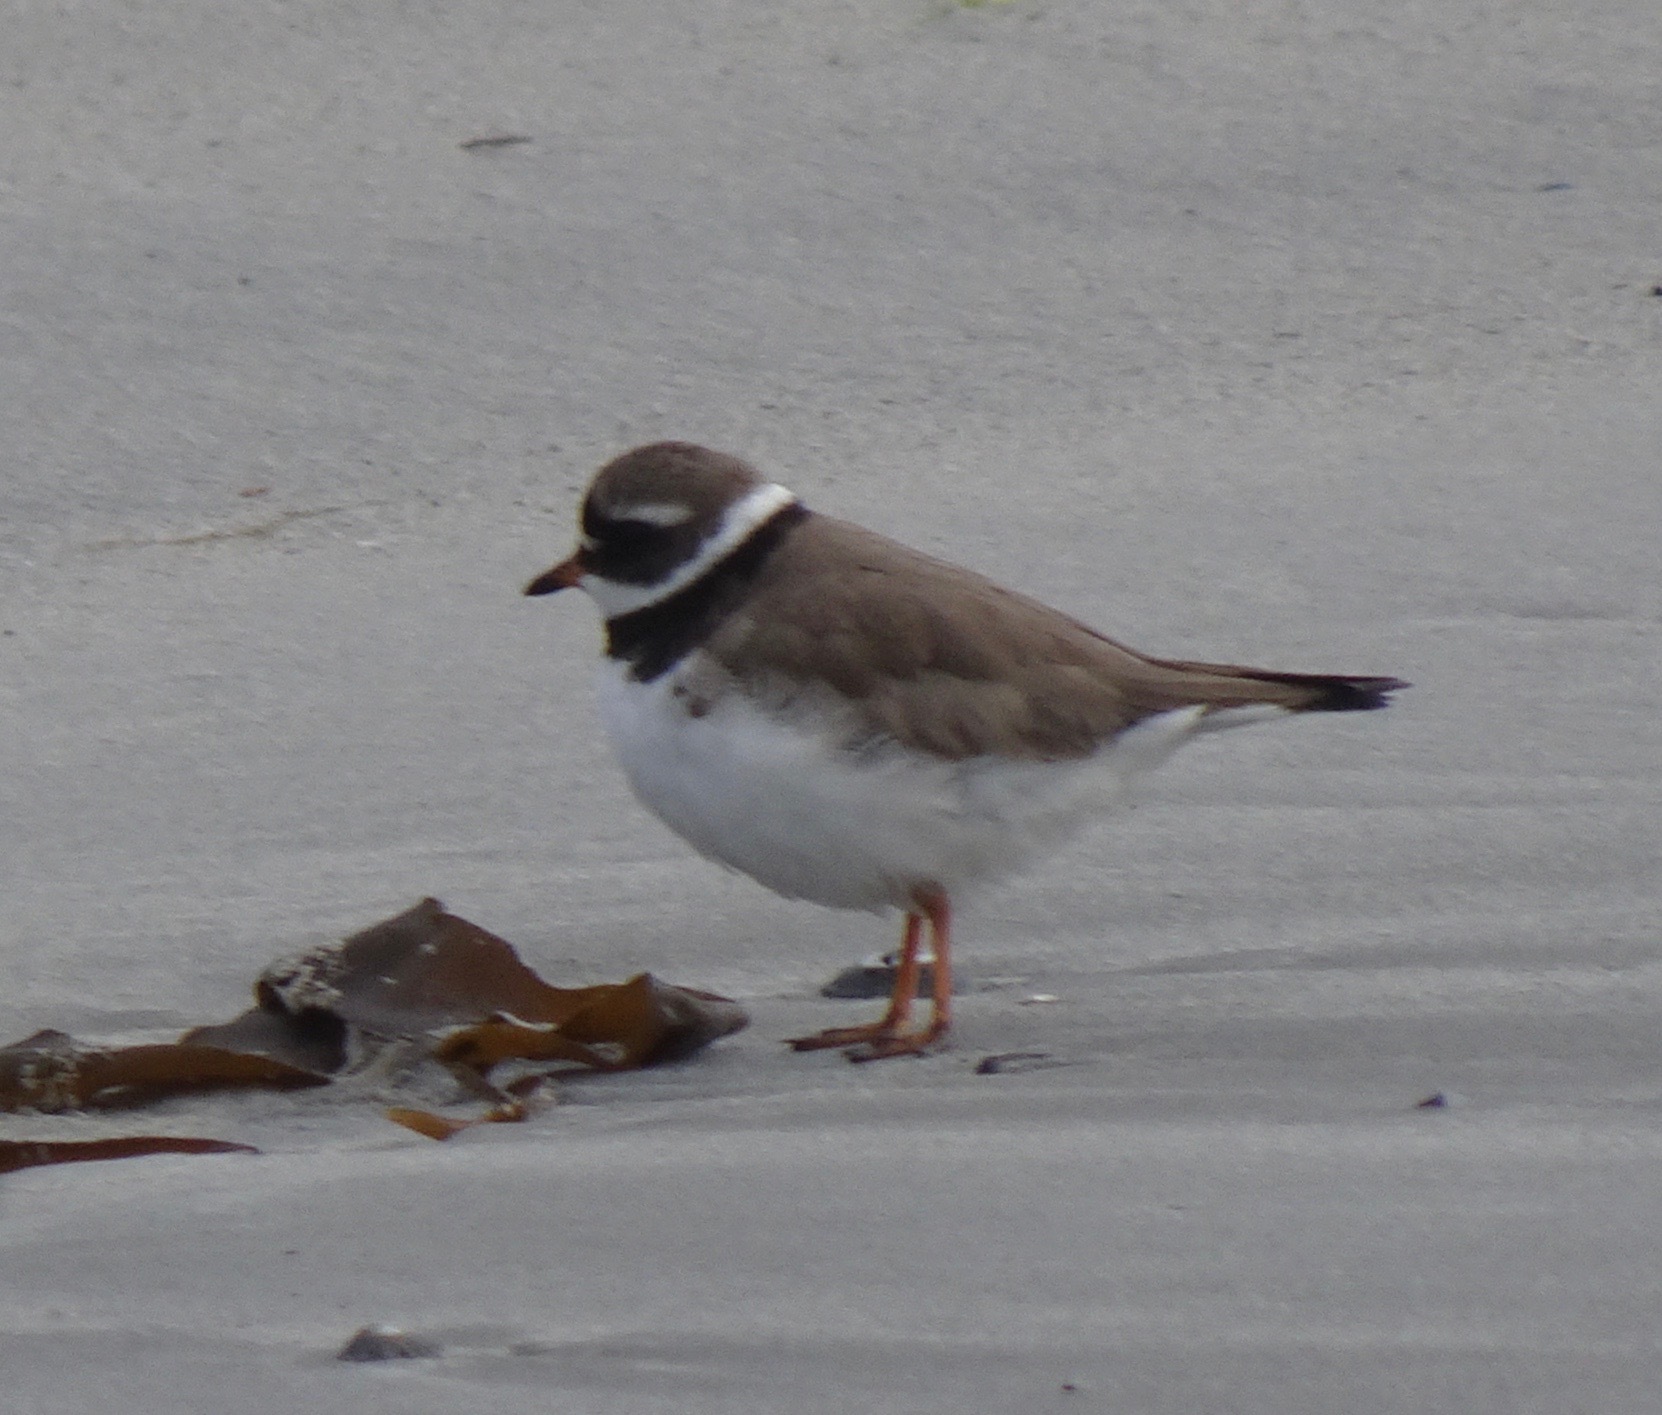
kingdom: Animalia
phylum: Chordata
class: Aves
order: Charadriiformes
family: Charadriidae
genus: Charadrius
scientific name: Charadrius hiaticula
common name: Common ringed plover
